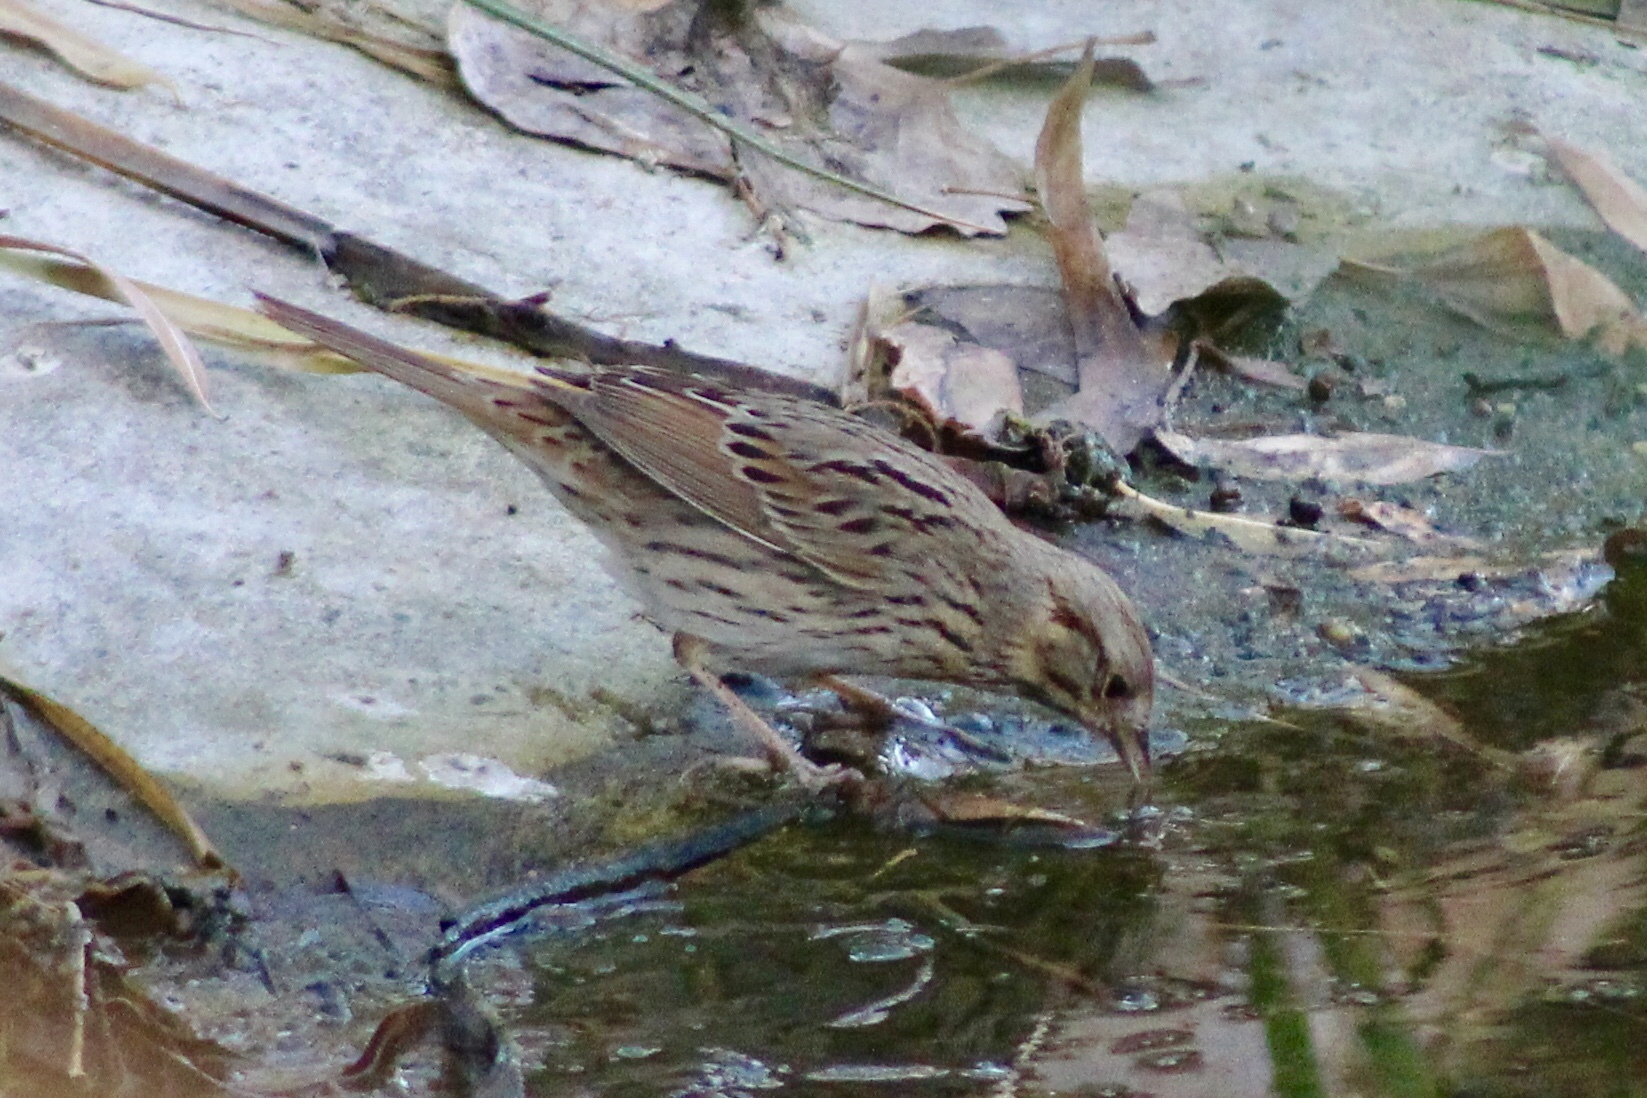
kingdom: Animalia
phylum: Chordata
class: Aves
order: Passeriformes
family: Passerellidae
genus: Melospiza
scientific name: Melospiza lincolnii
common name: Lincoln's sparrow
